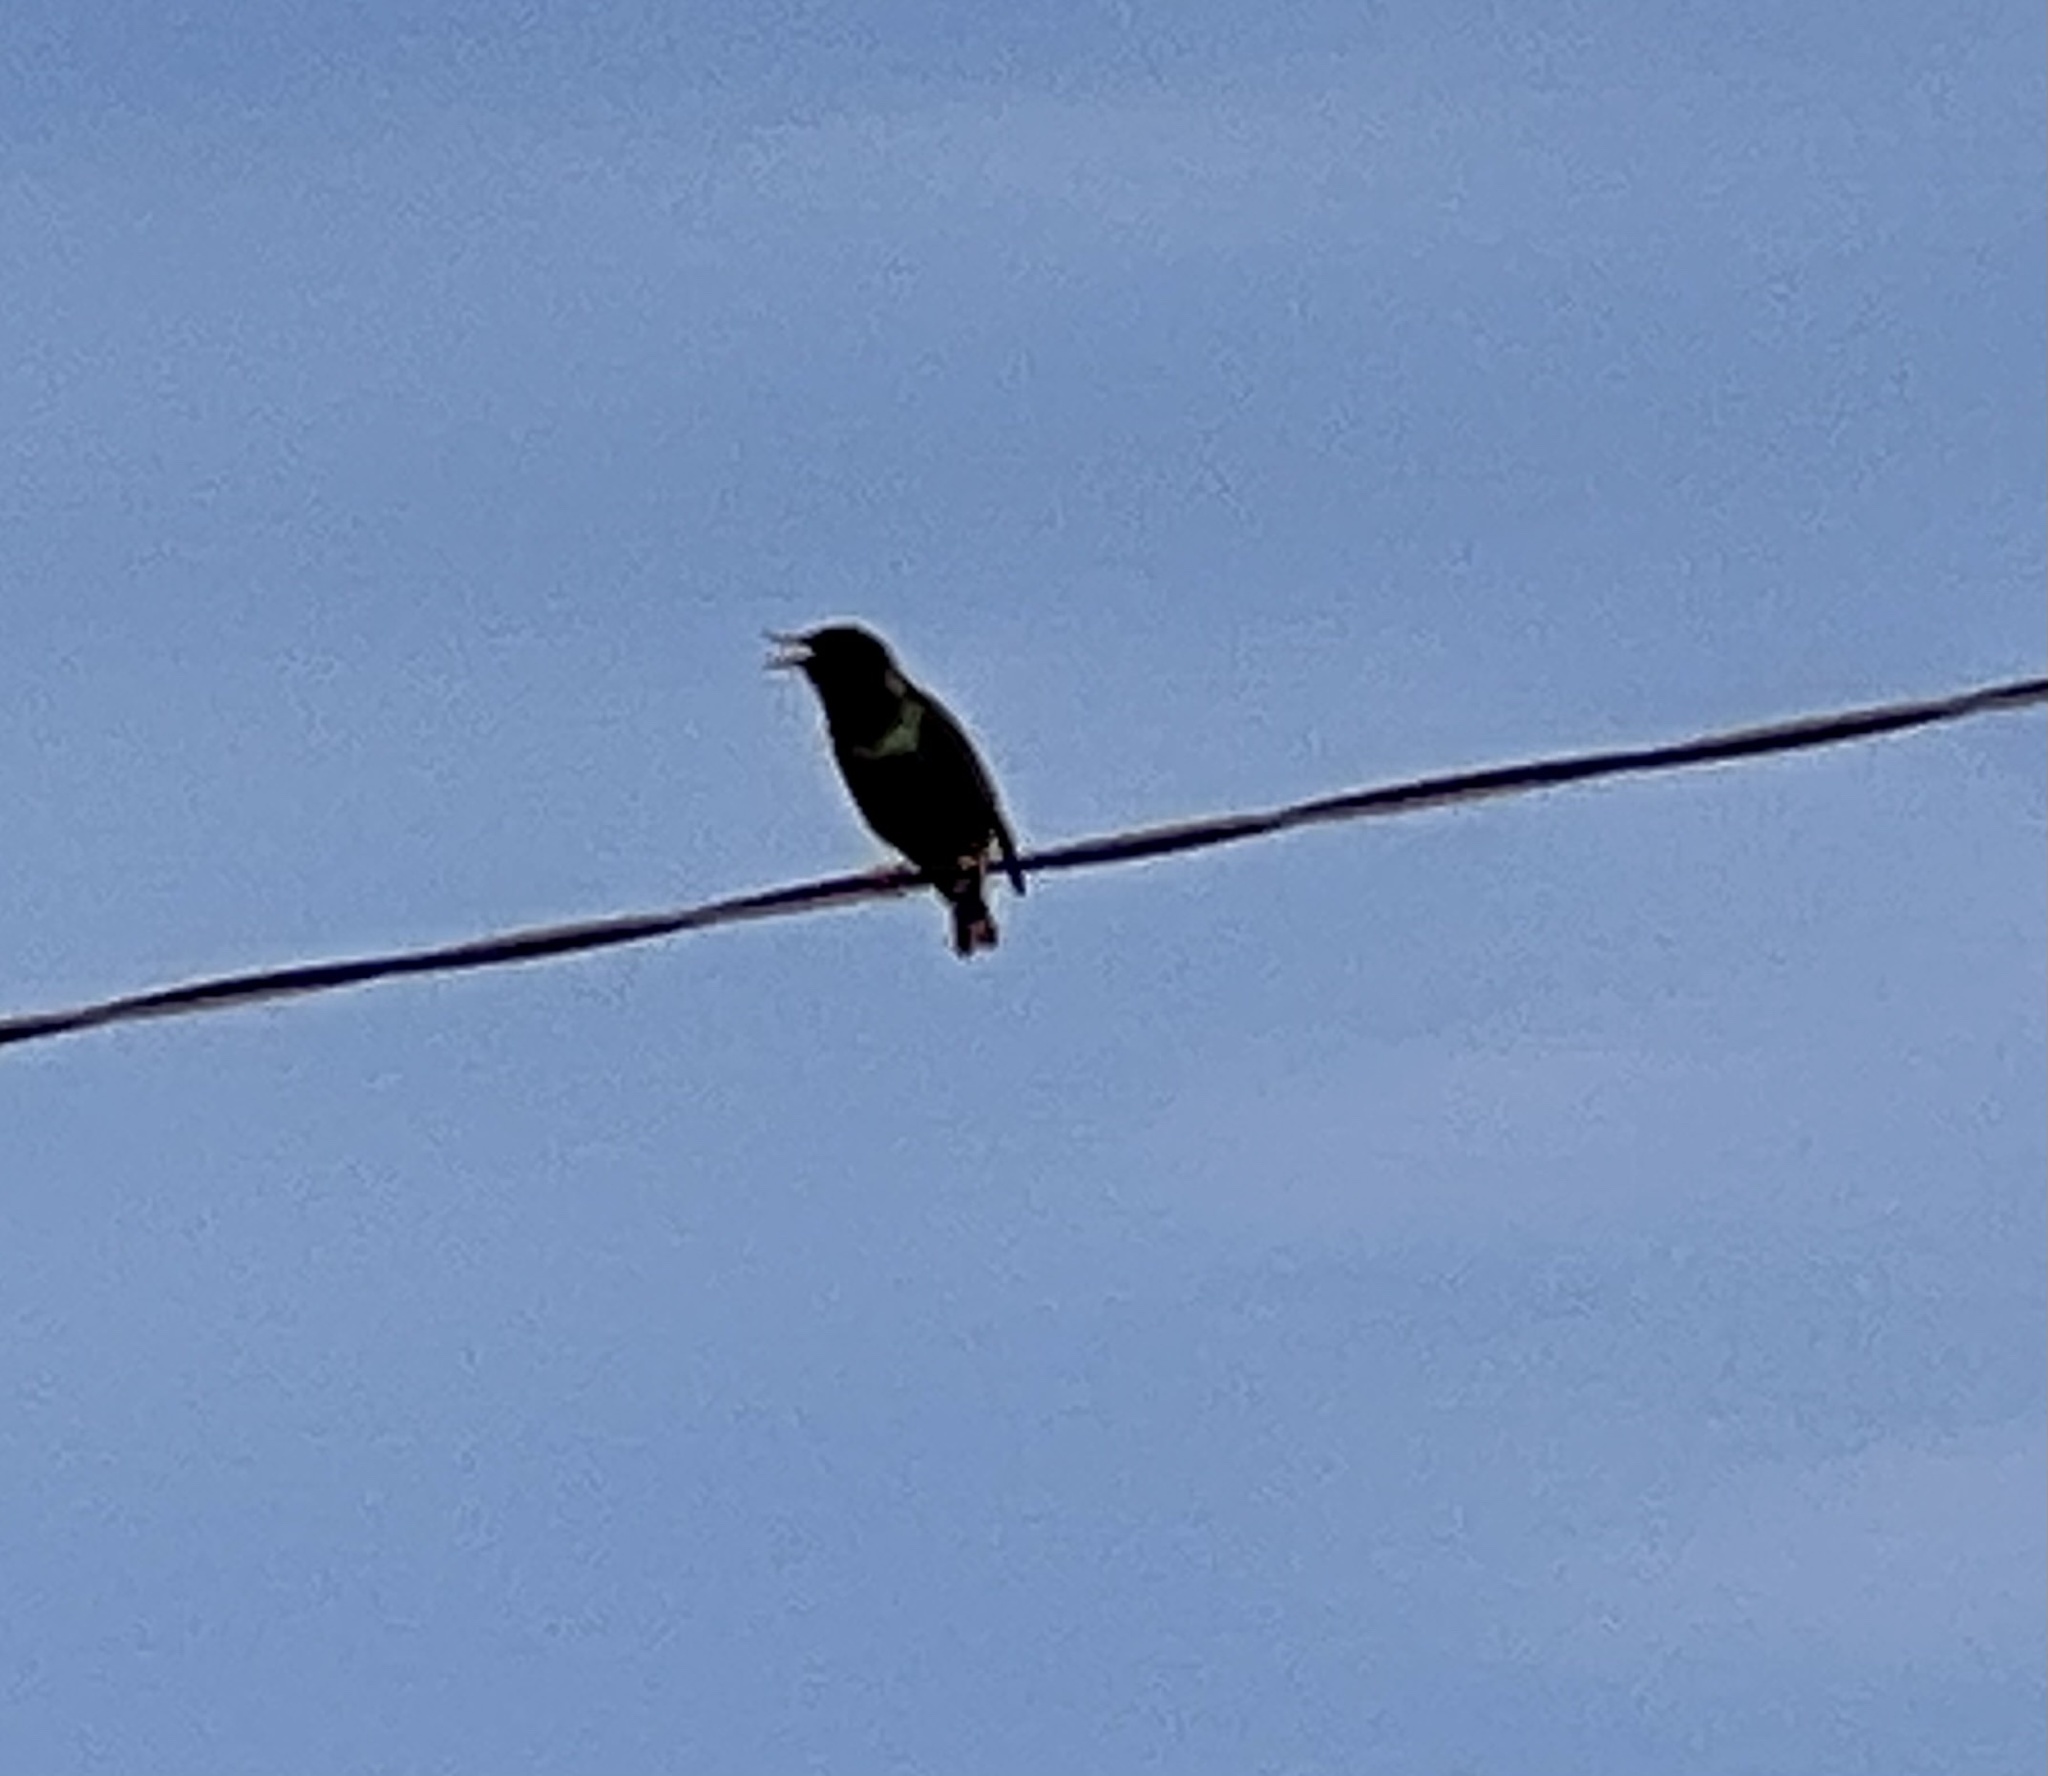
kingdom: Animalia
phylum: Chordata
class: Aves
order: Passeriformes
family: Sturnidae
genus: Sturnus
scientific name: Sturnus vulgaris
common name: Common starling
